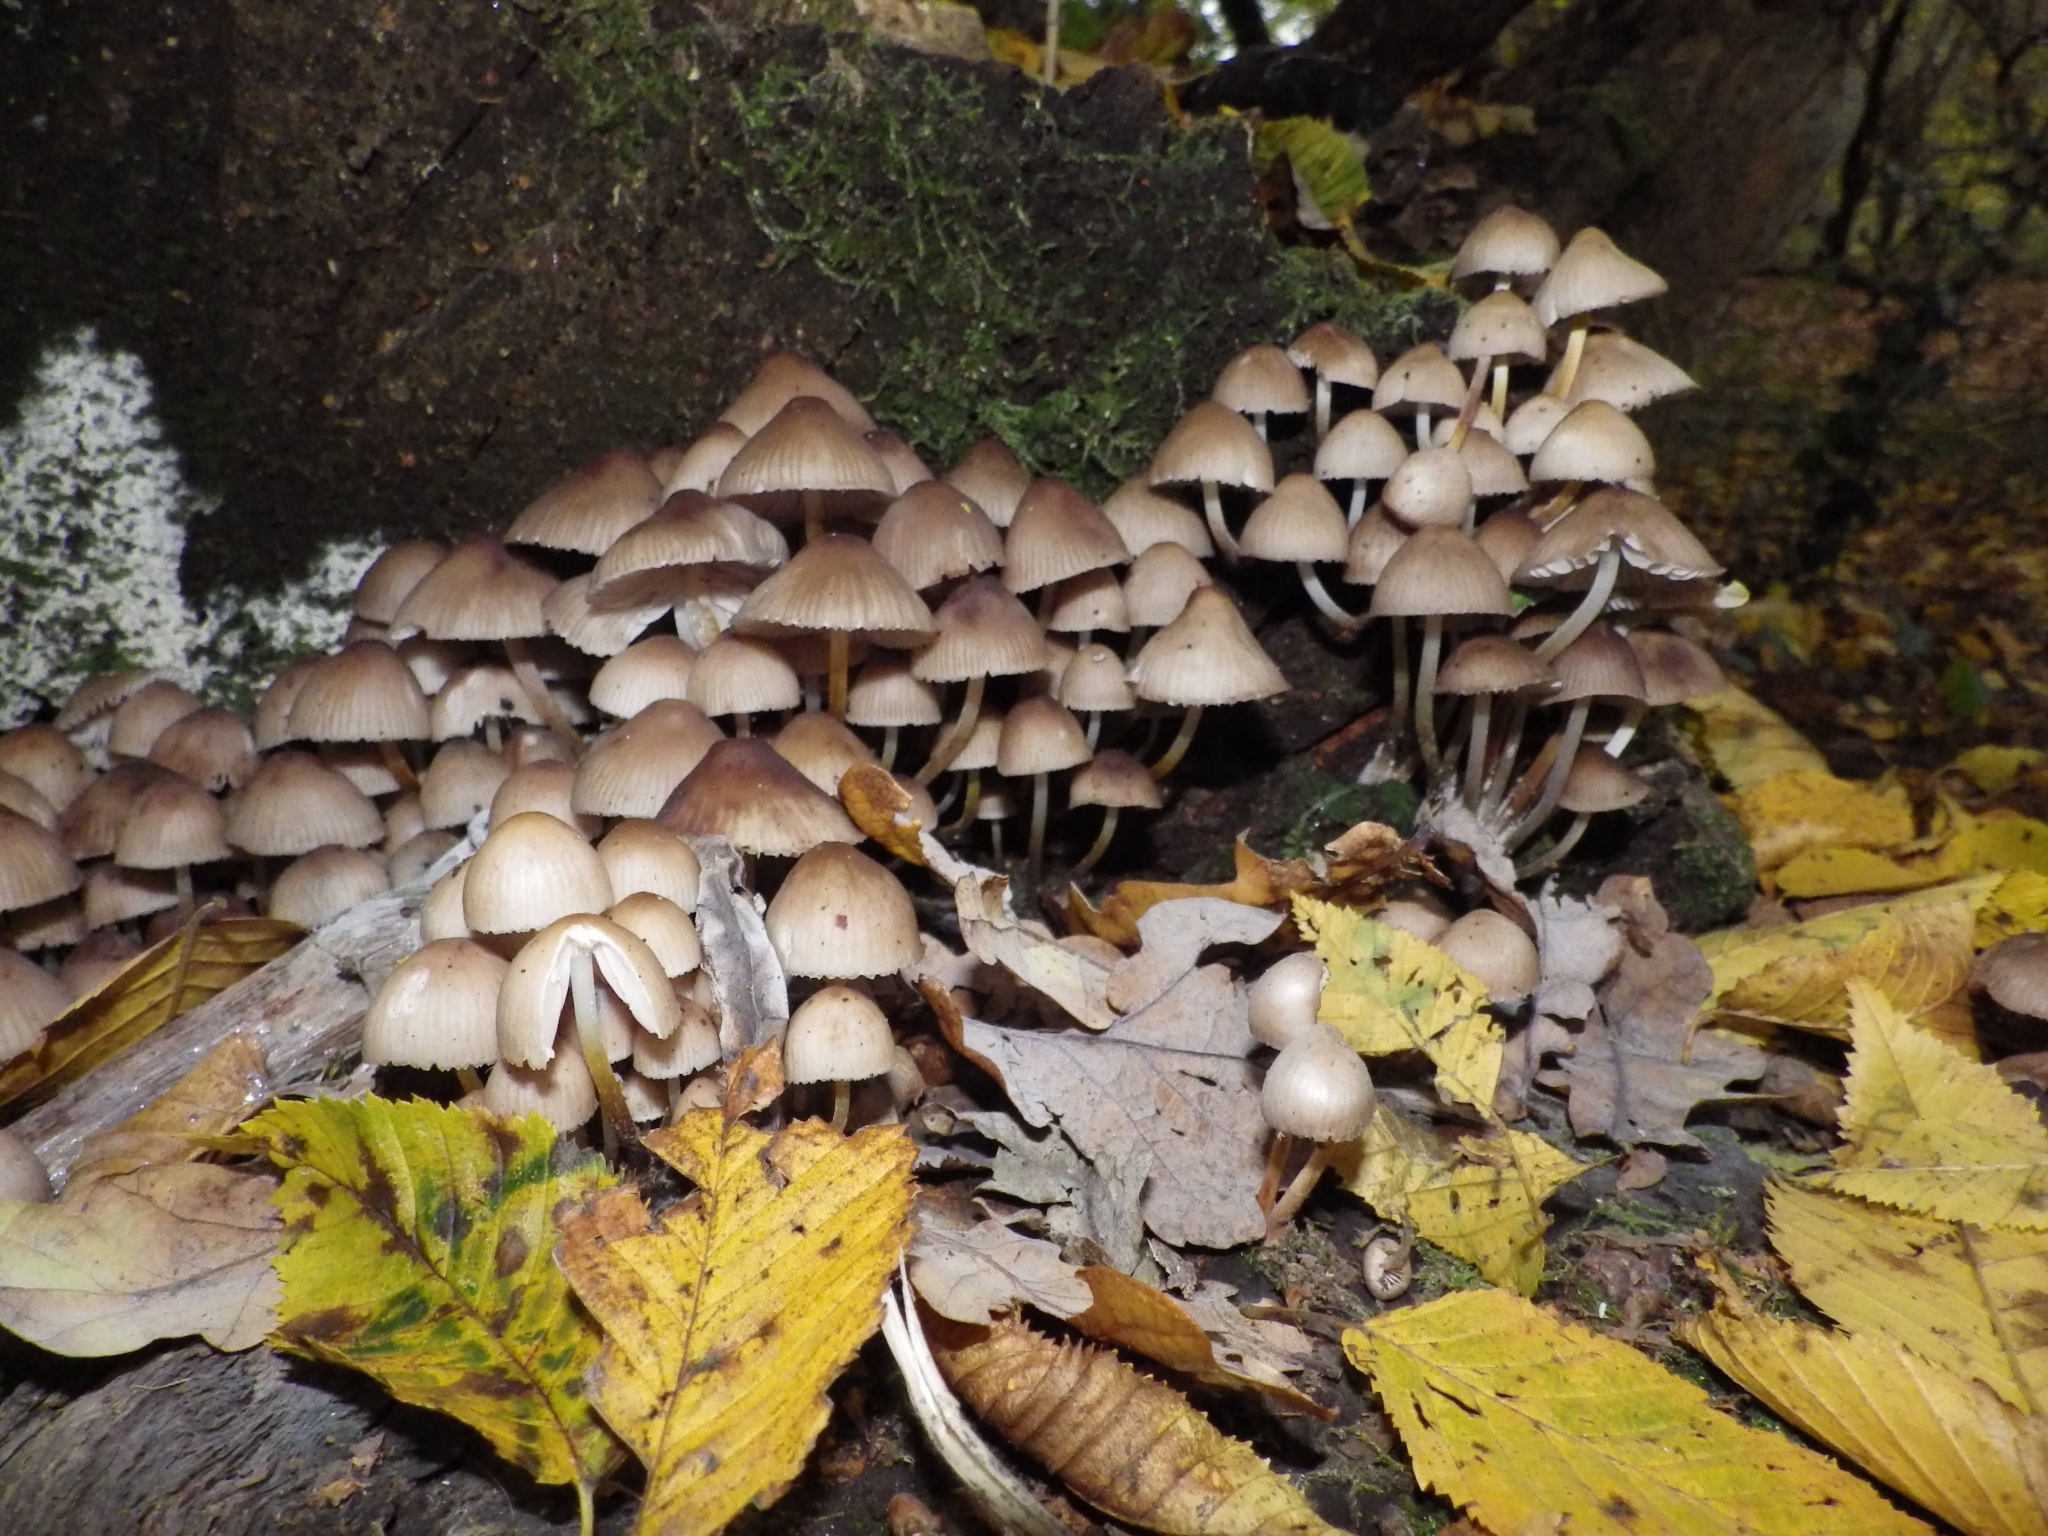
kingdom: Fungi
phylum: Basidiomycota
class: Agaricomycetes
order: Agaricales
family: Mycenaceae
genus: Mycena
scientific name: Mycena inclinata
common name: Clustered bonnet
